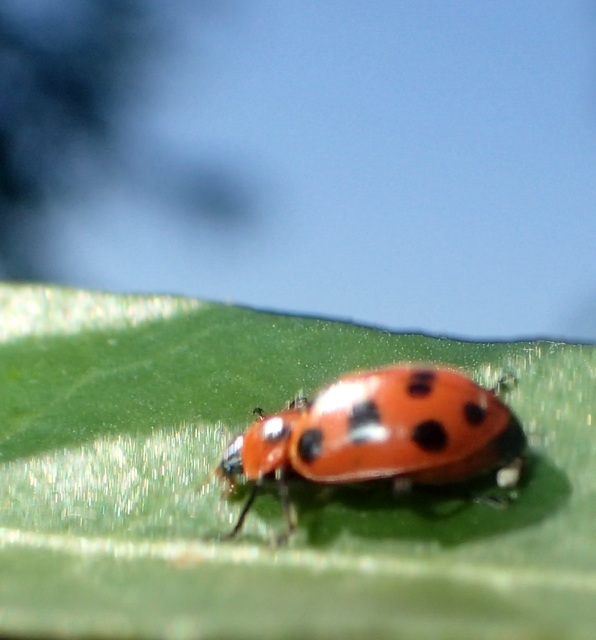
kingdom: Animalia
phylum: Arthropoda
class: Insecta
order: Coleoptera
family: Coccinellidae
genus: Coleomegilla
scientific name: Coleomegilla maculata
